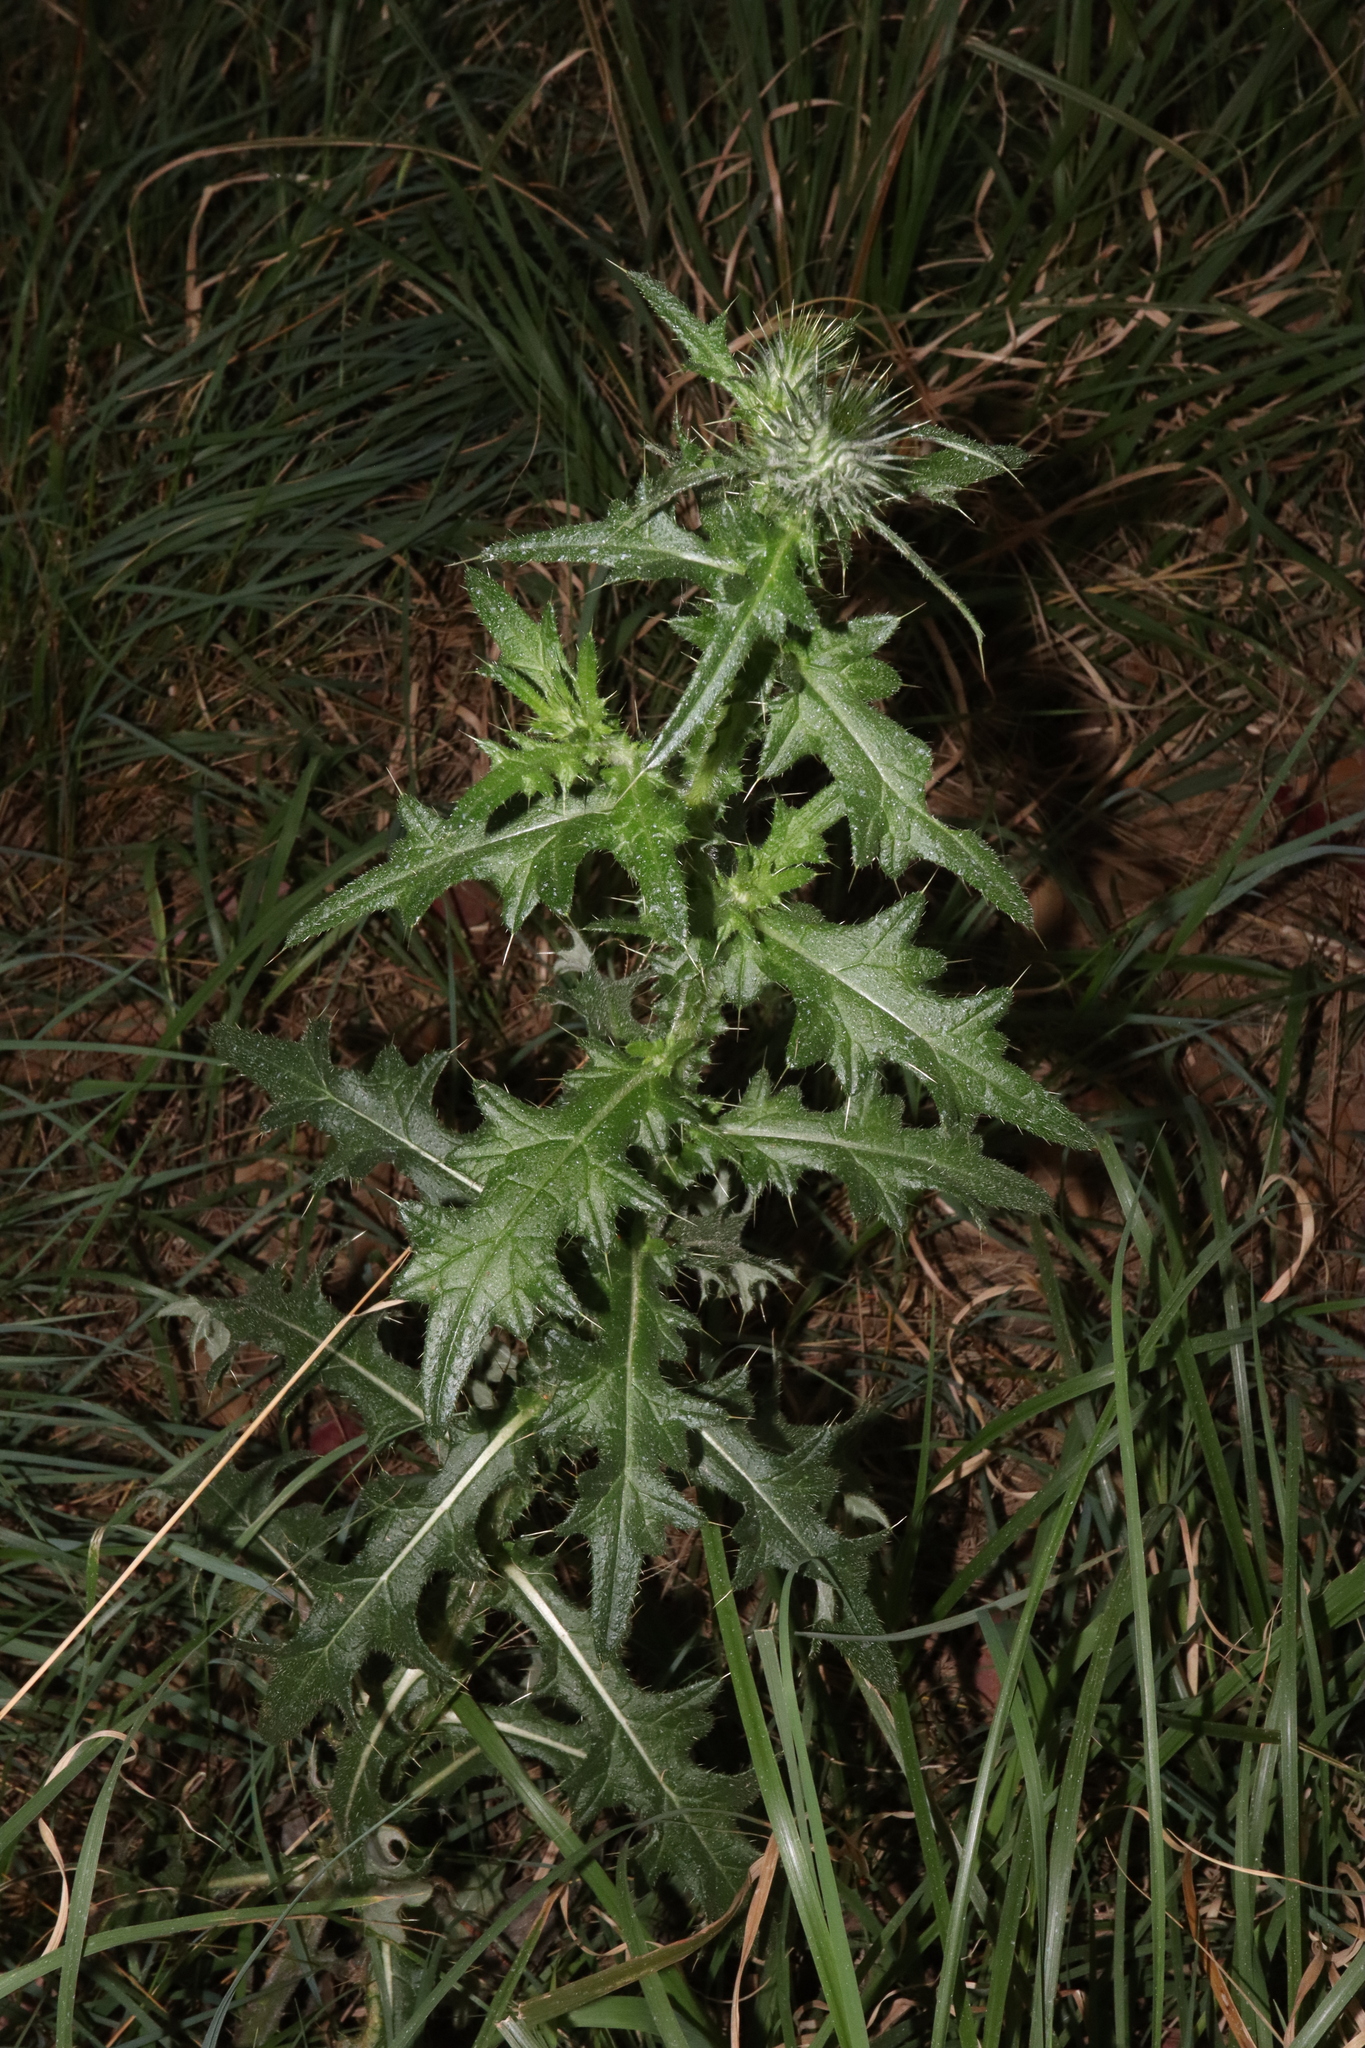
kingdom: Plantae
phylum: Tracheophyta
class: Magnoliopsida
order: Asterales
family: Asteraceae
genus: Cirsium
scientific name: Cirsium vulgare
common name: Bull thistle
